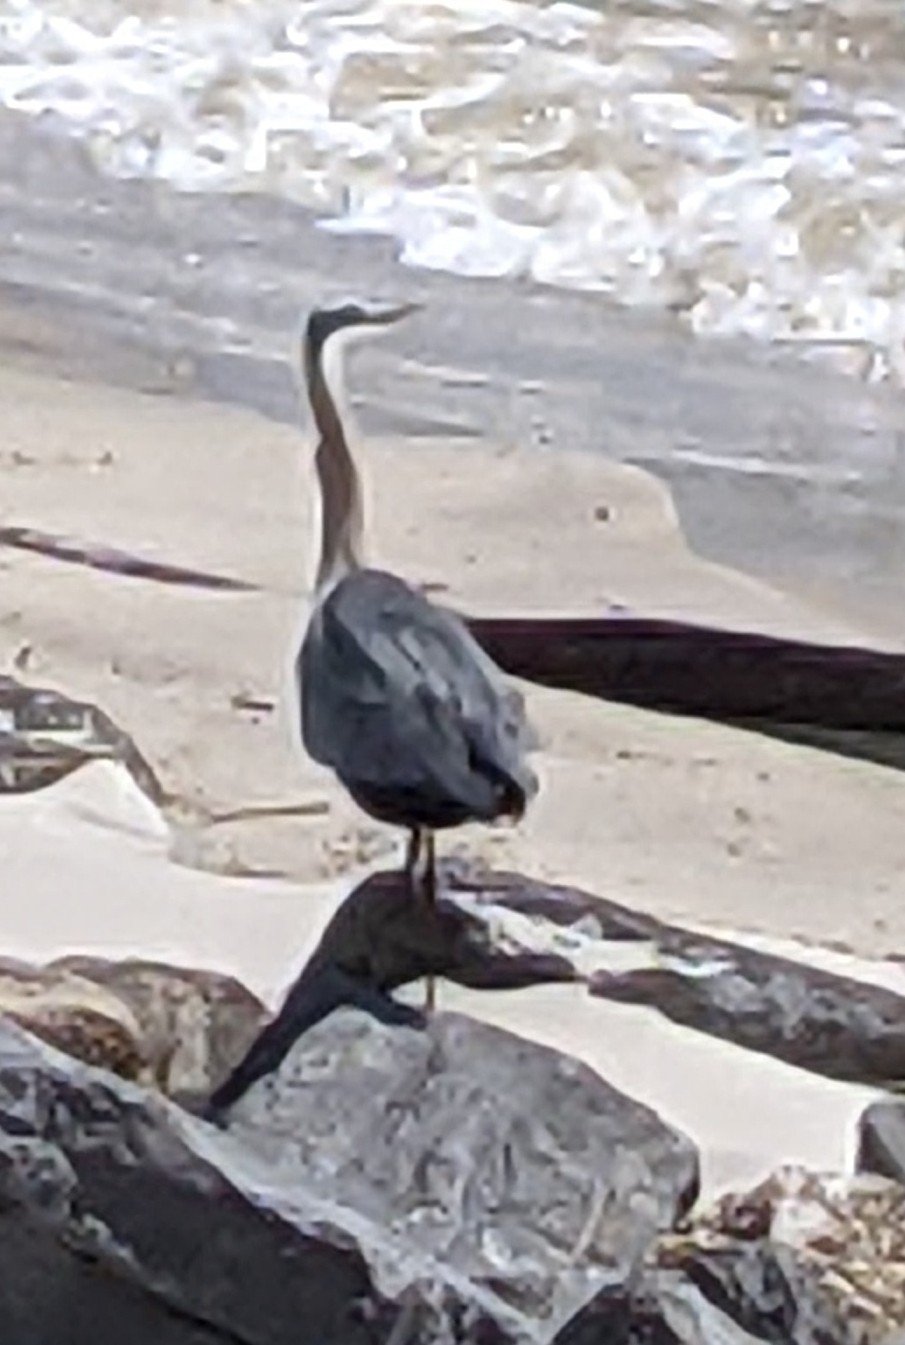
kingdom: Animalia
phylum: Chordata
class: Aves
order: Pelecaniformes
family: Ardeidae
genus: Ardea
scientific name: Ardea herodias
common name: Great blue heron
